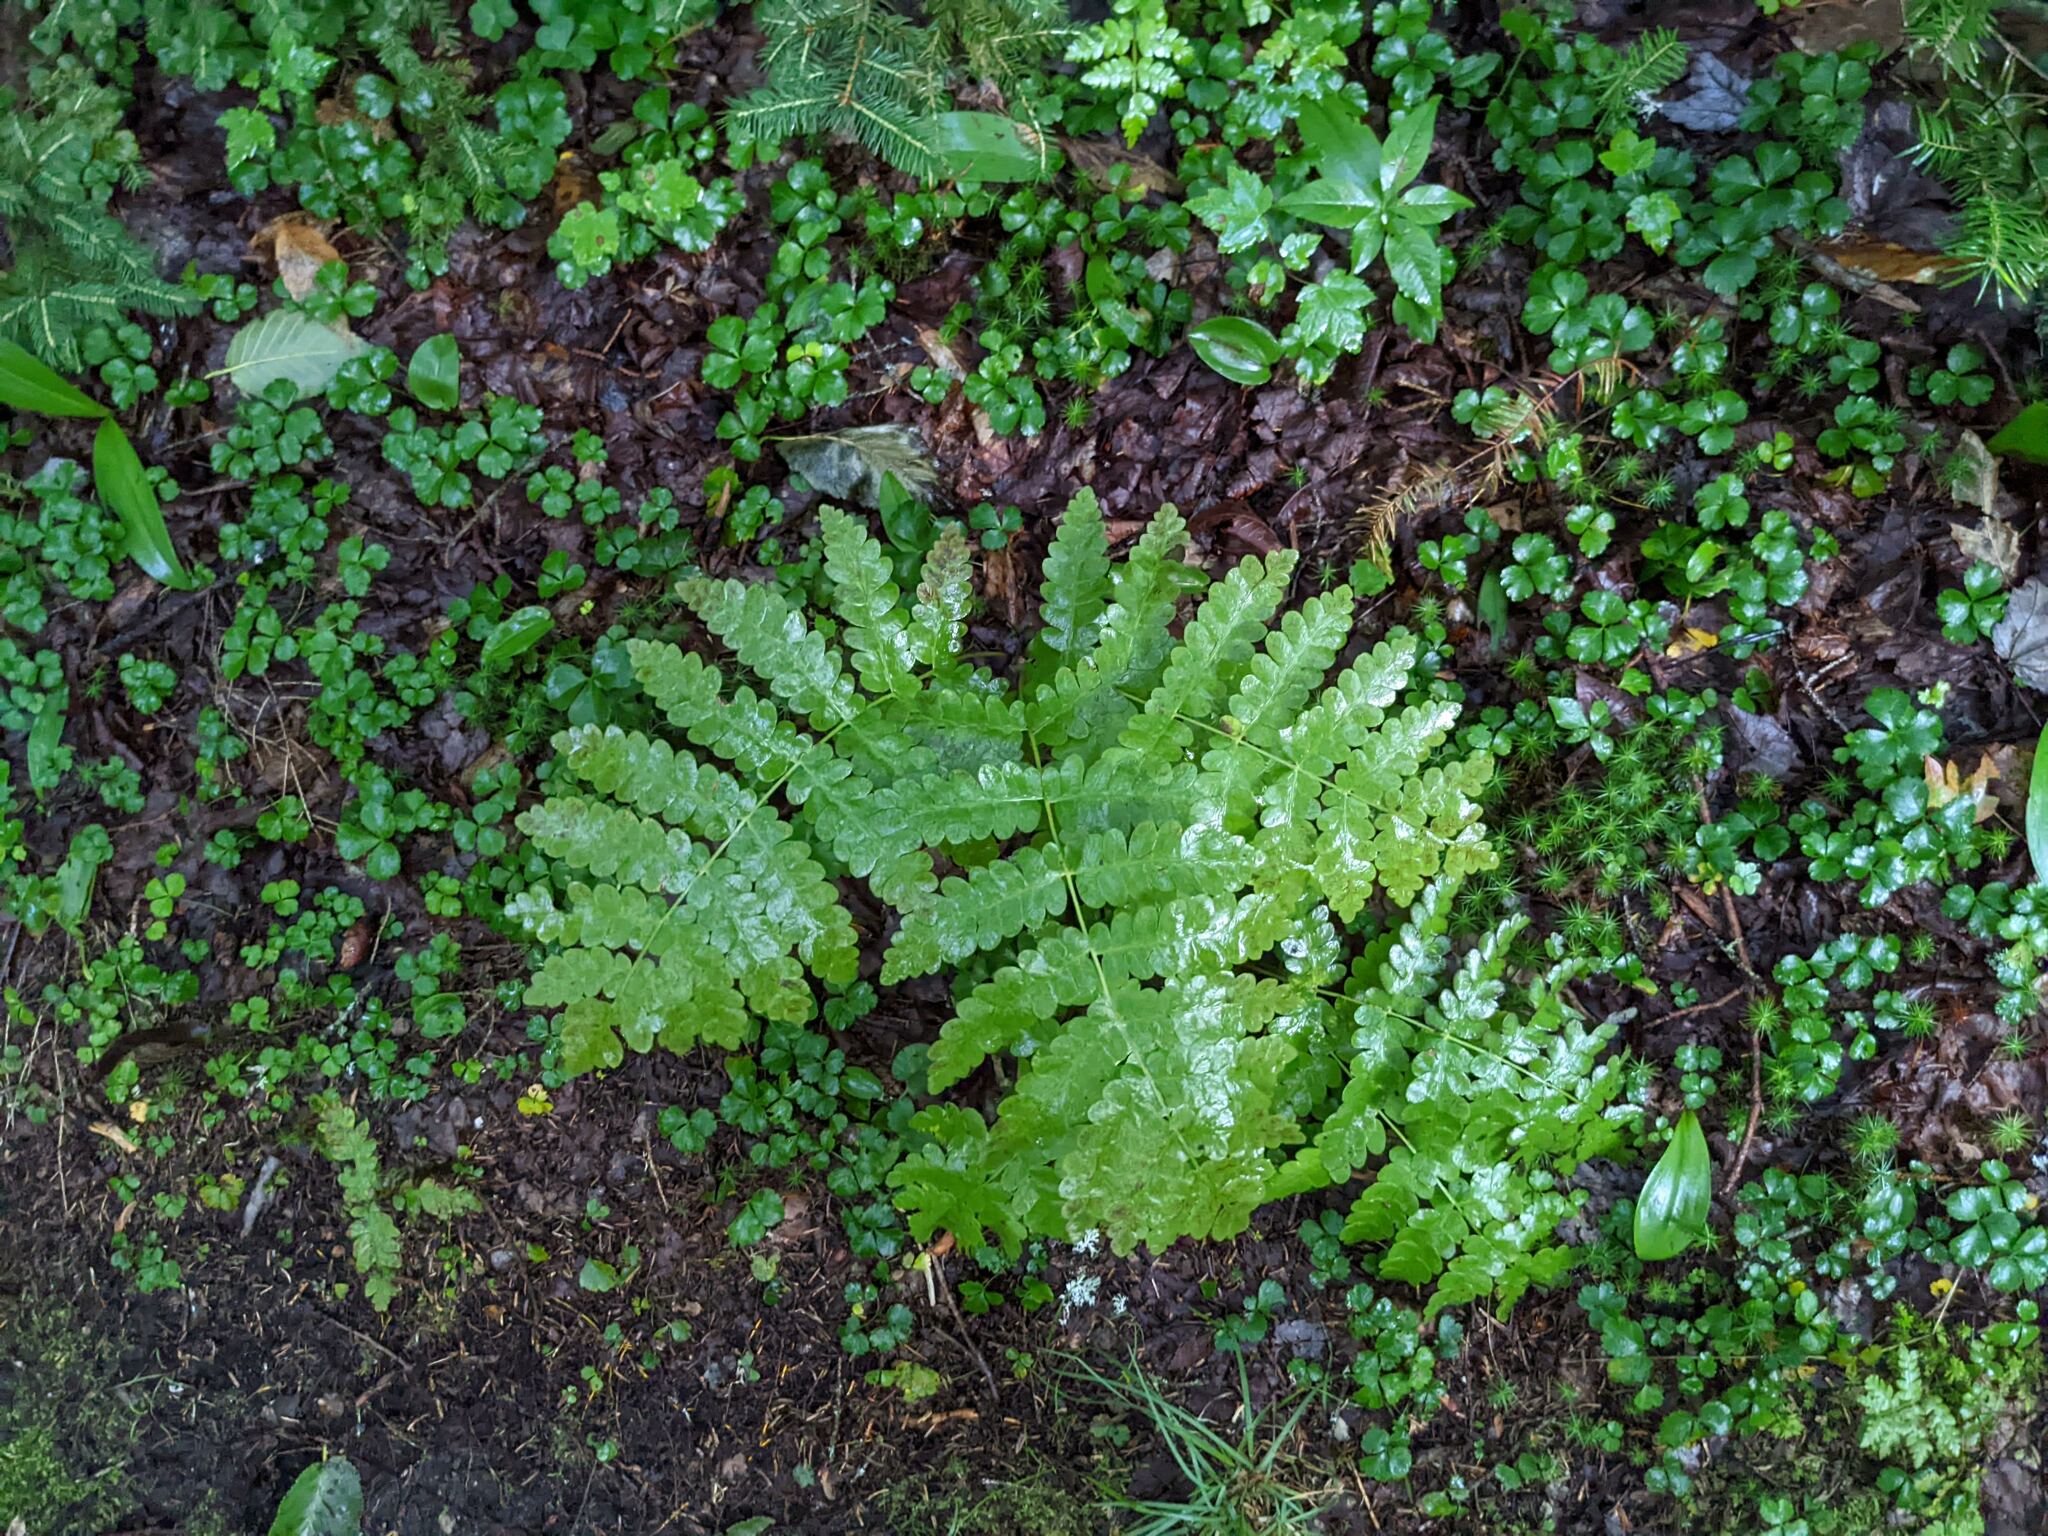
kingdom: Plantae
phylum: Tracheophyta
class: Polypodiopsida
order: Osmundales
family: Osmundaceae
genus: Claytosmunda
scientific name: Claytosmunda claytoniana
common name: Clayton's fern
